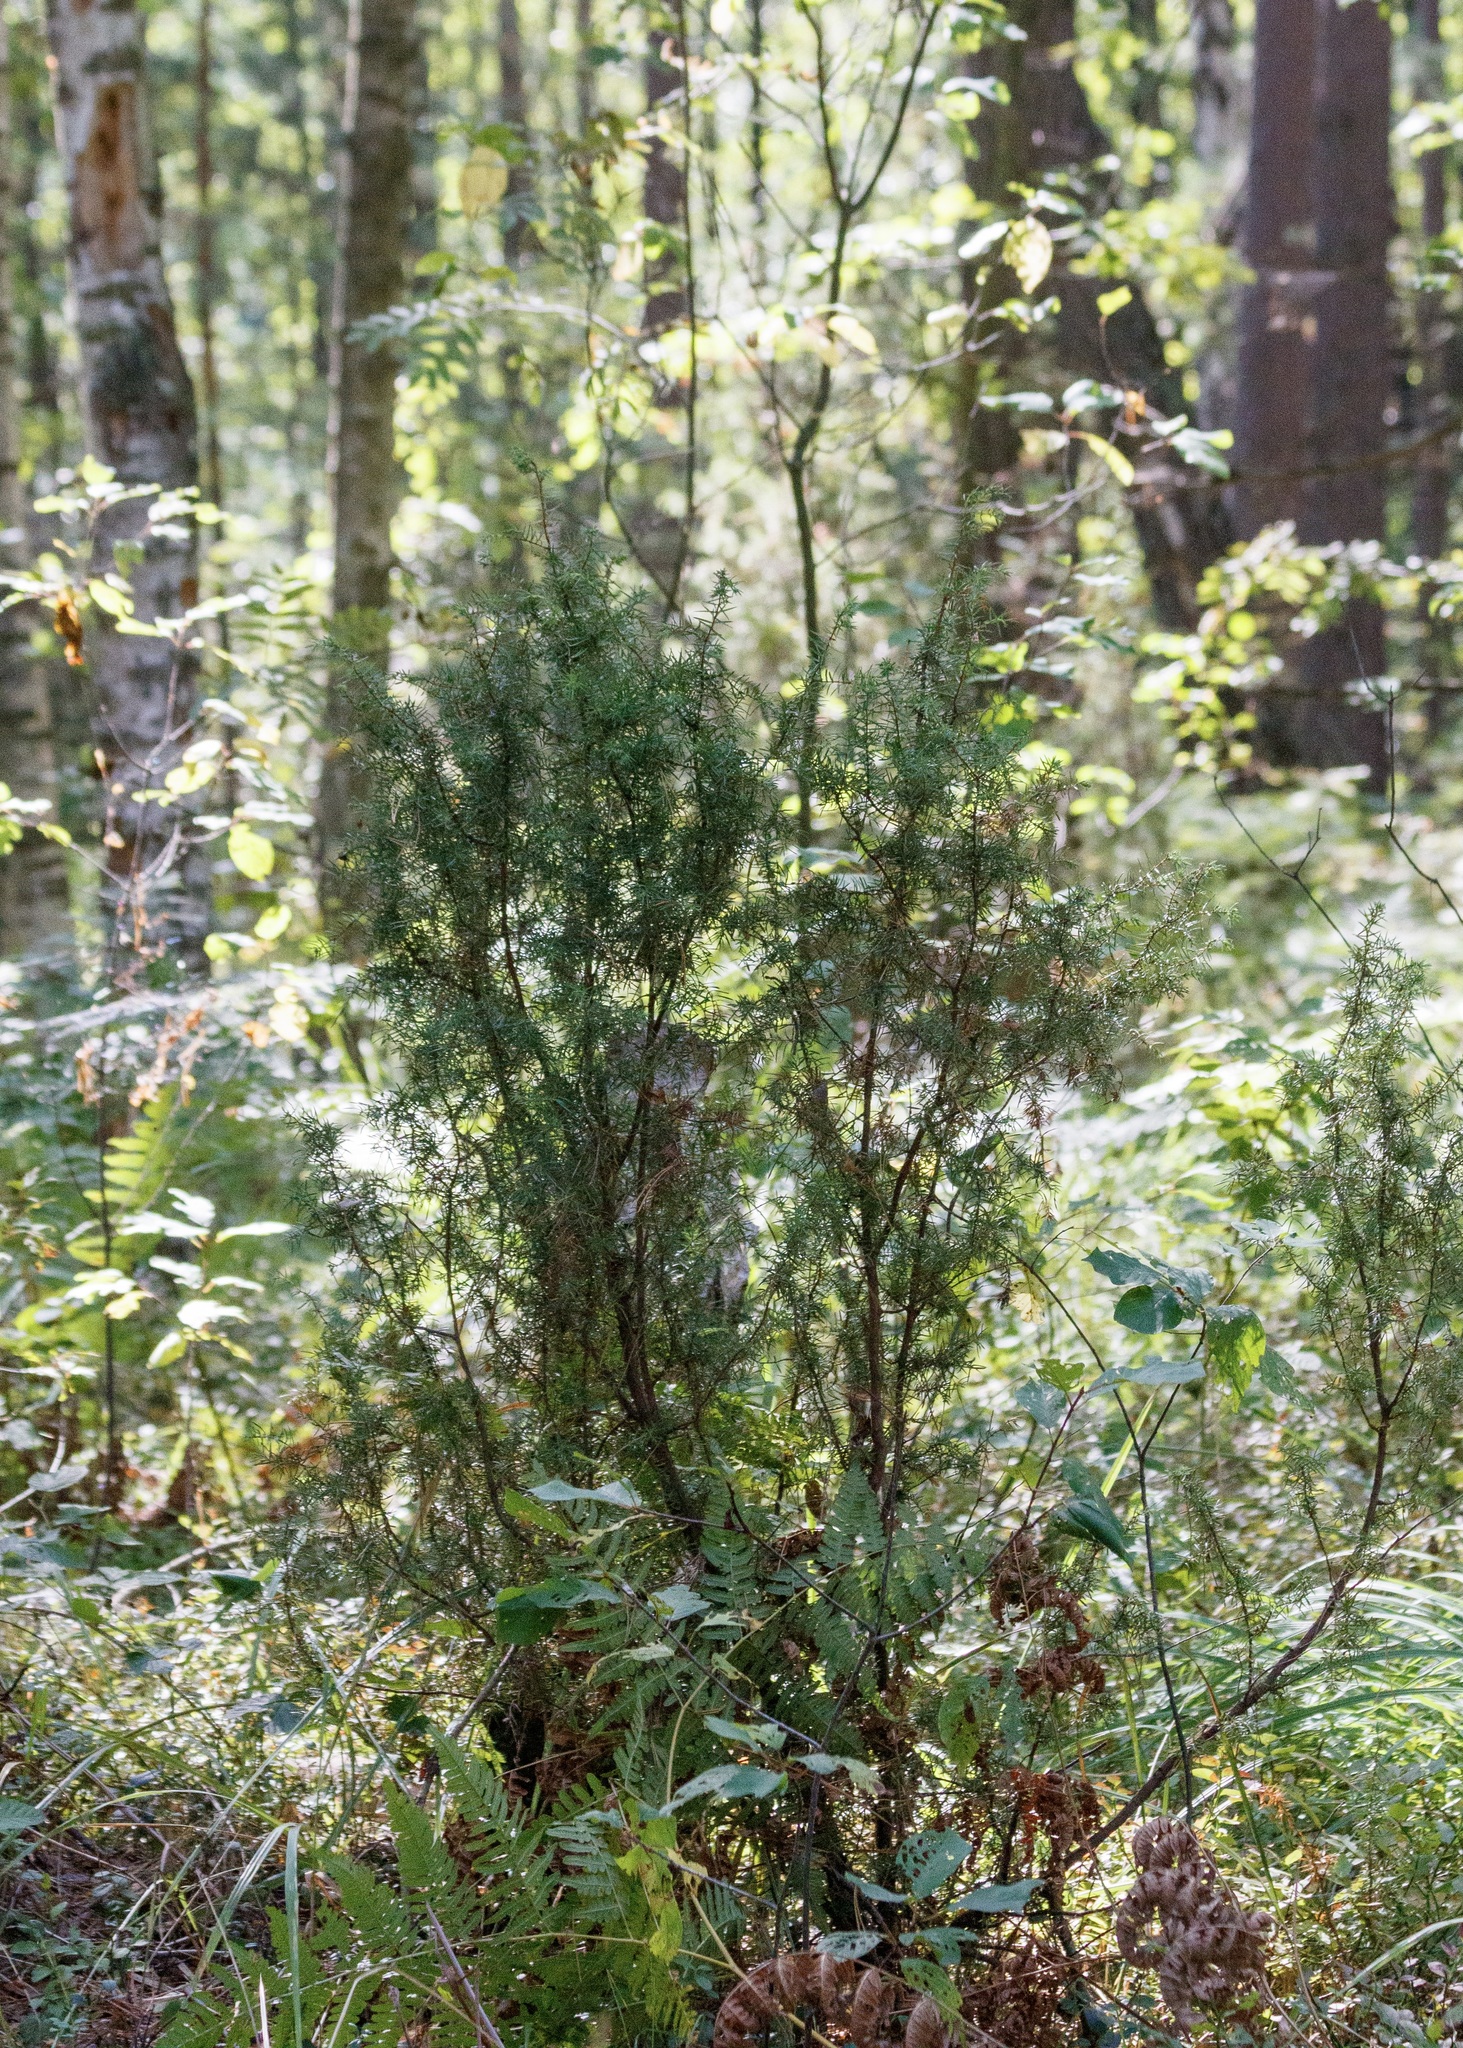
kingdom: Plantae
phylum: Tracheophyta
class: Pinopsida
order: Pinales
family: Cupressaceae
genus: Juniperus
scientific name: Juniperus communis
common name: Common juniper
